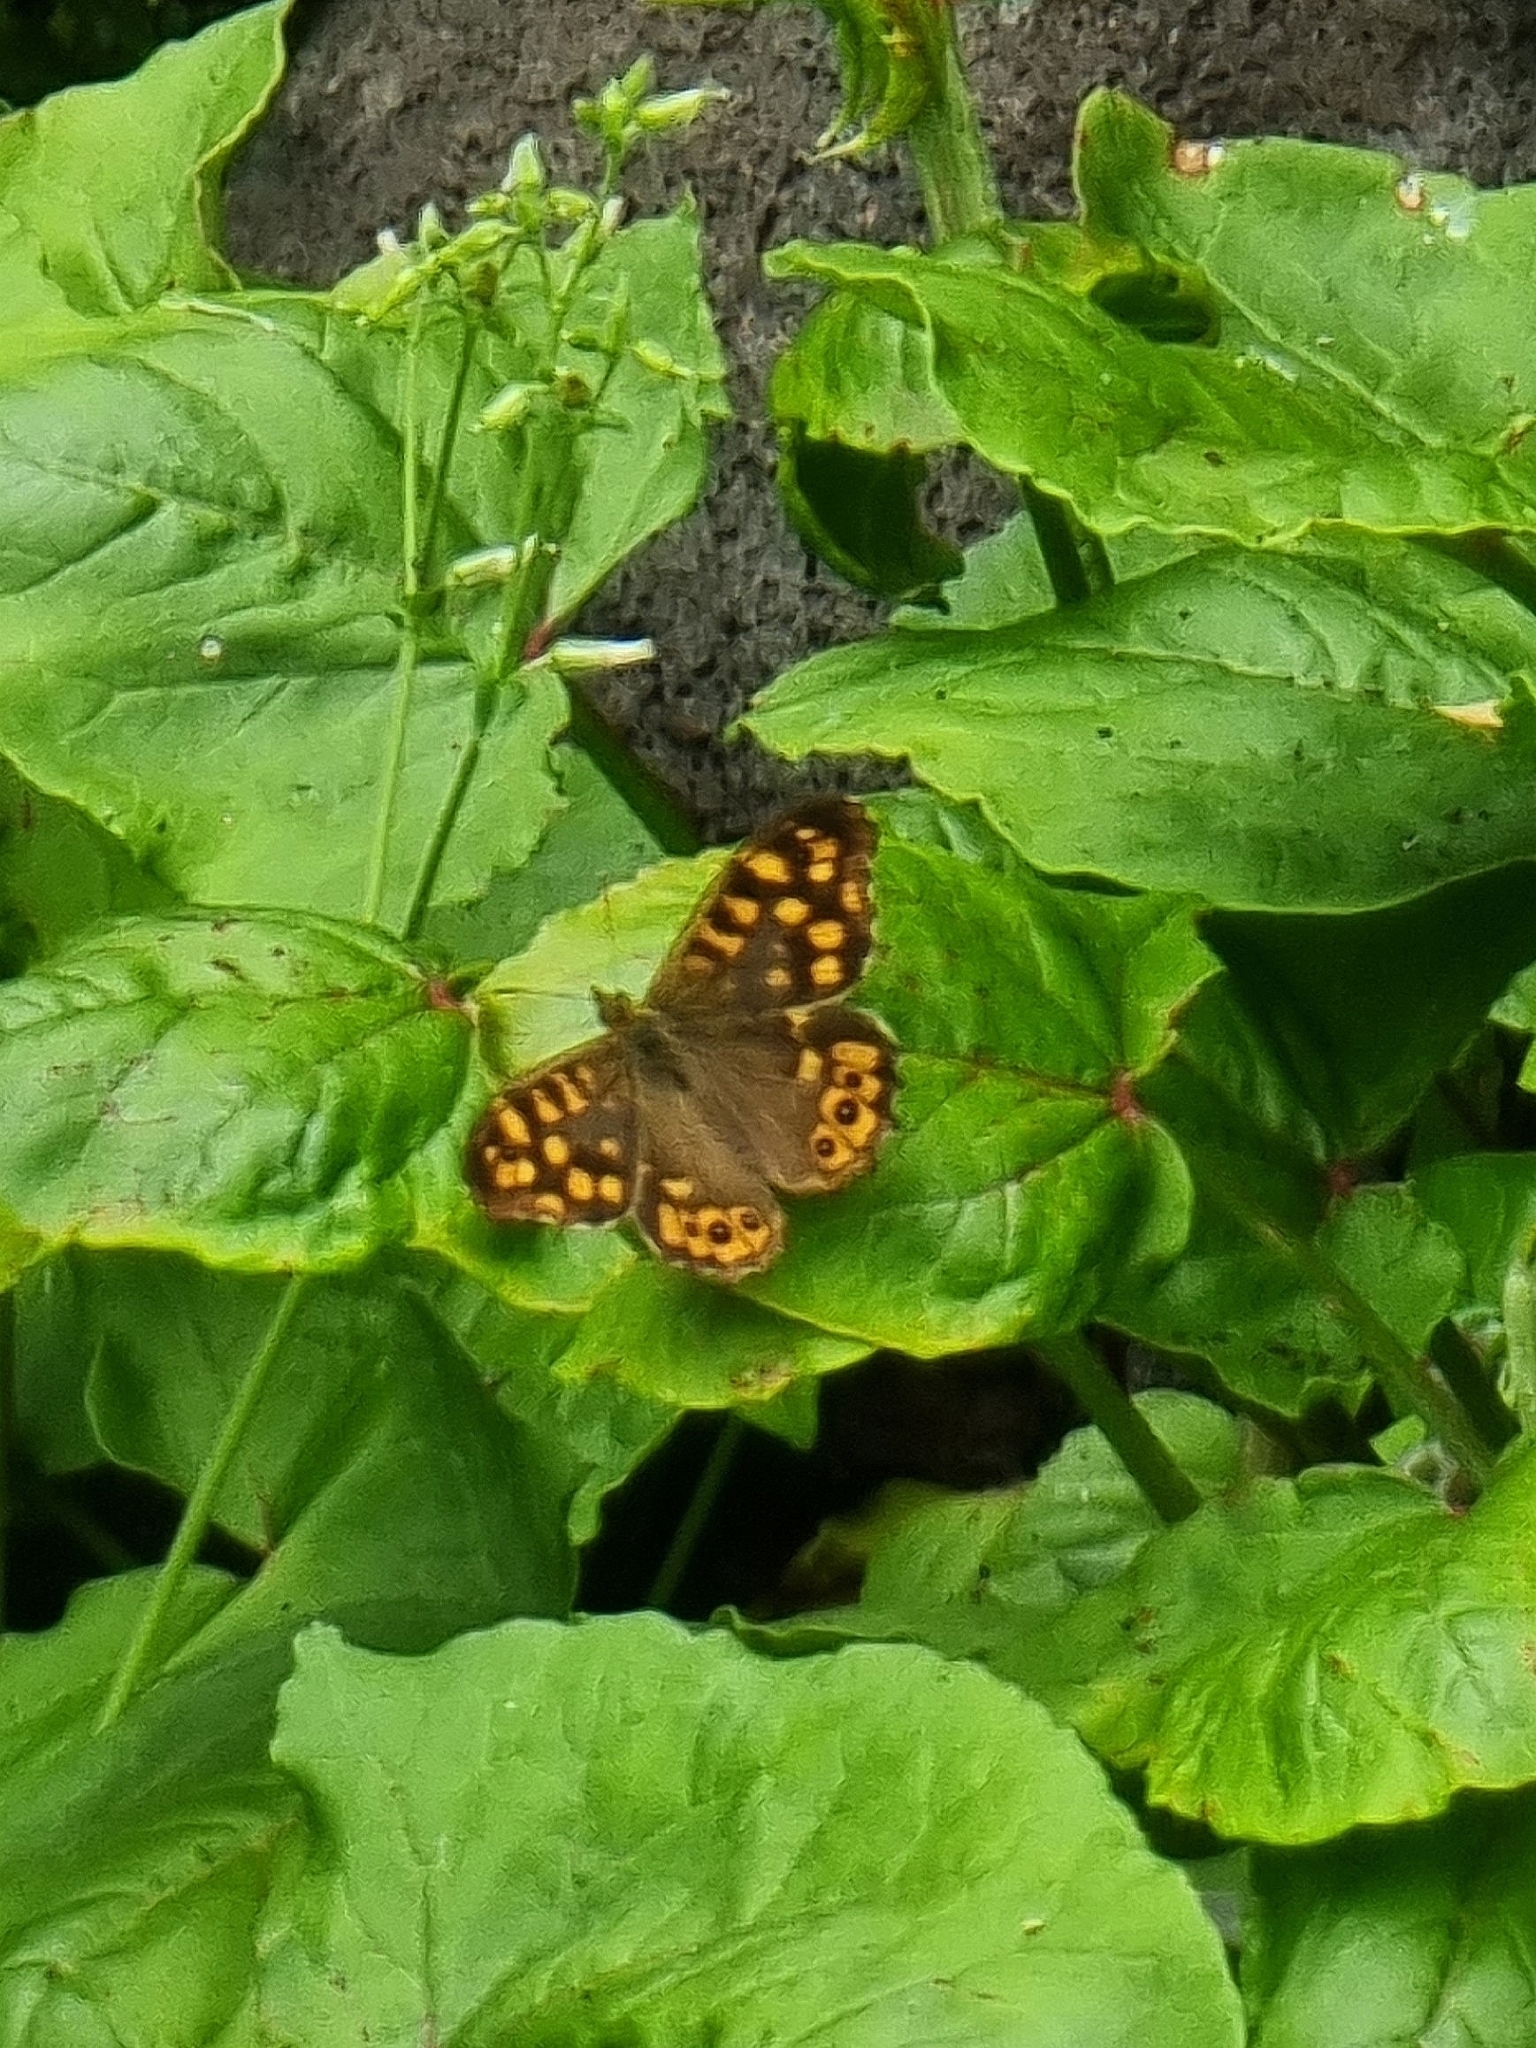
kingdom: Animalia
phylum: Arthropoda
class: Insecta
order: Lepidoptera
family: Nymphalidae
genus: Pararge
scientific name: Pararge aegeria
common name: Speckled wood
